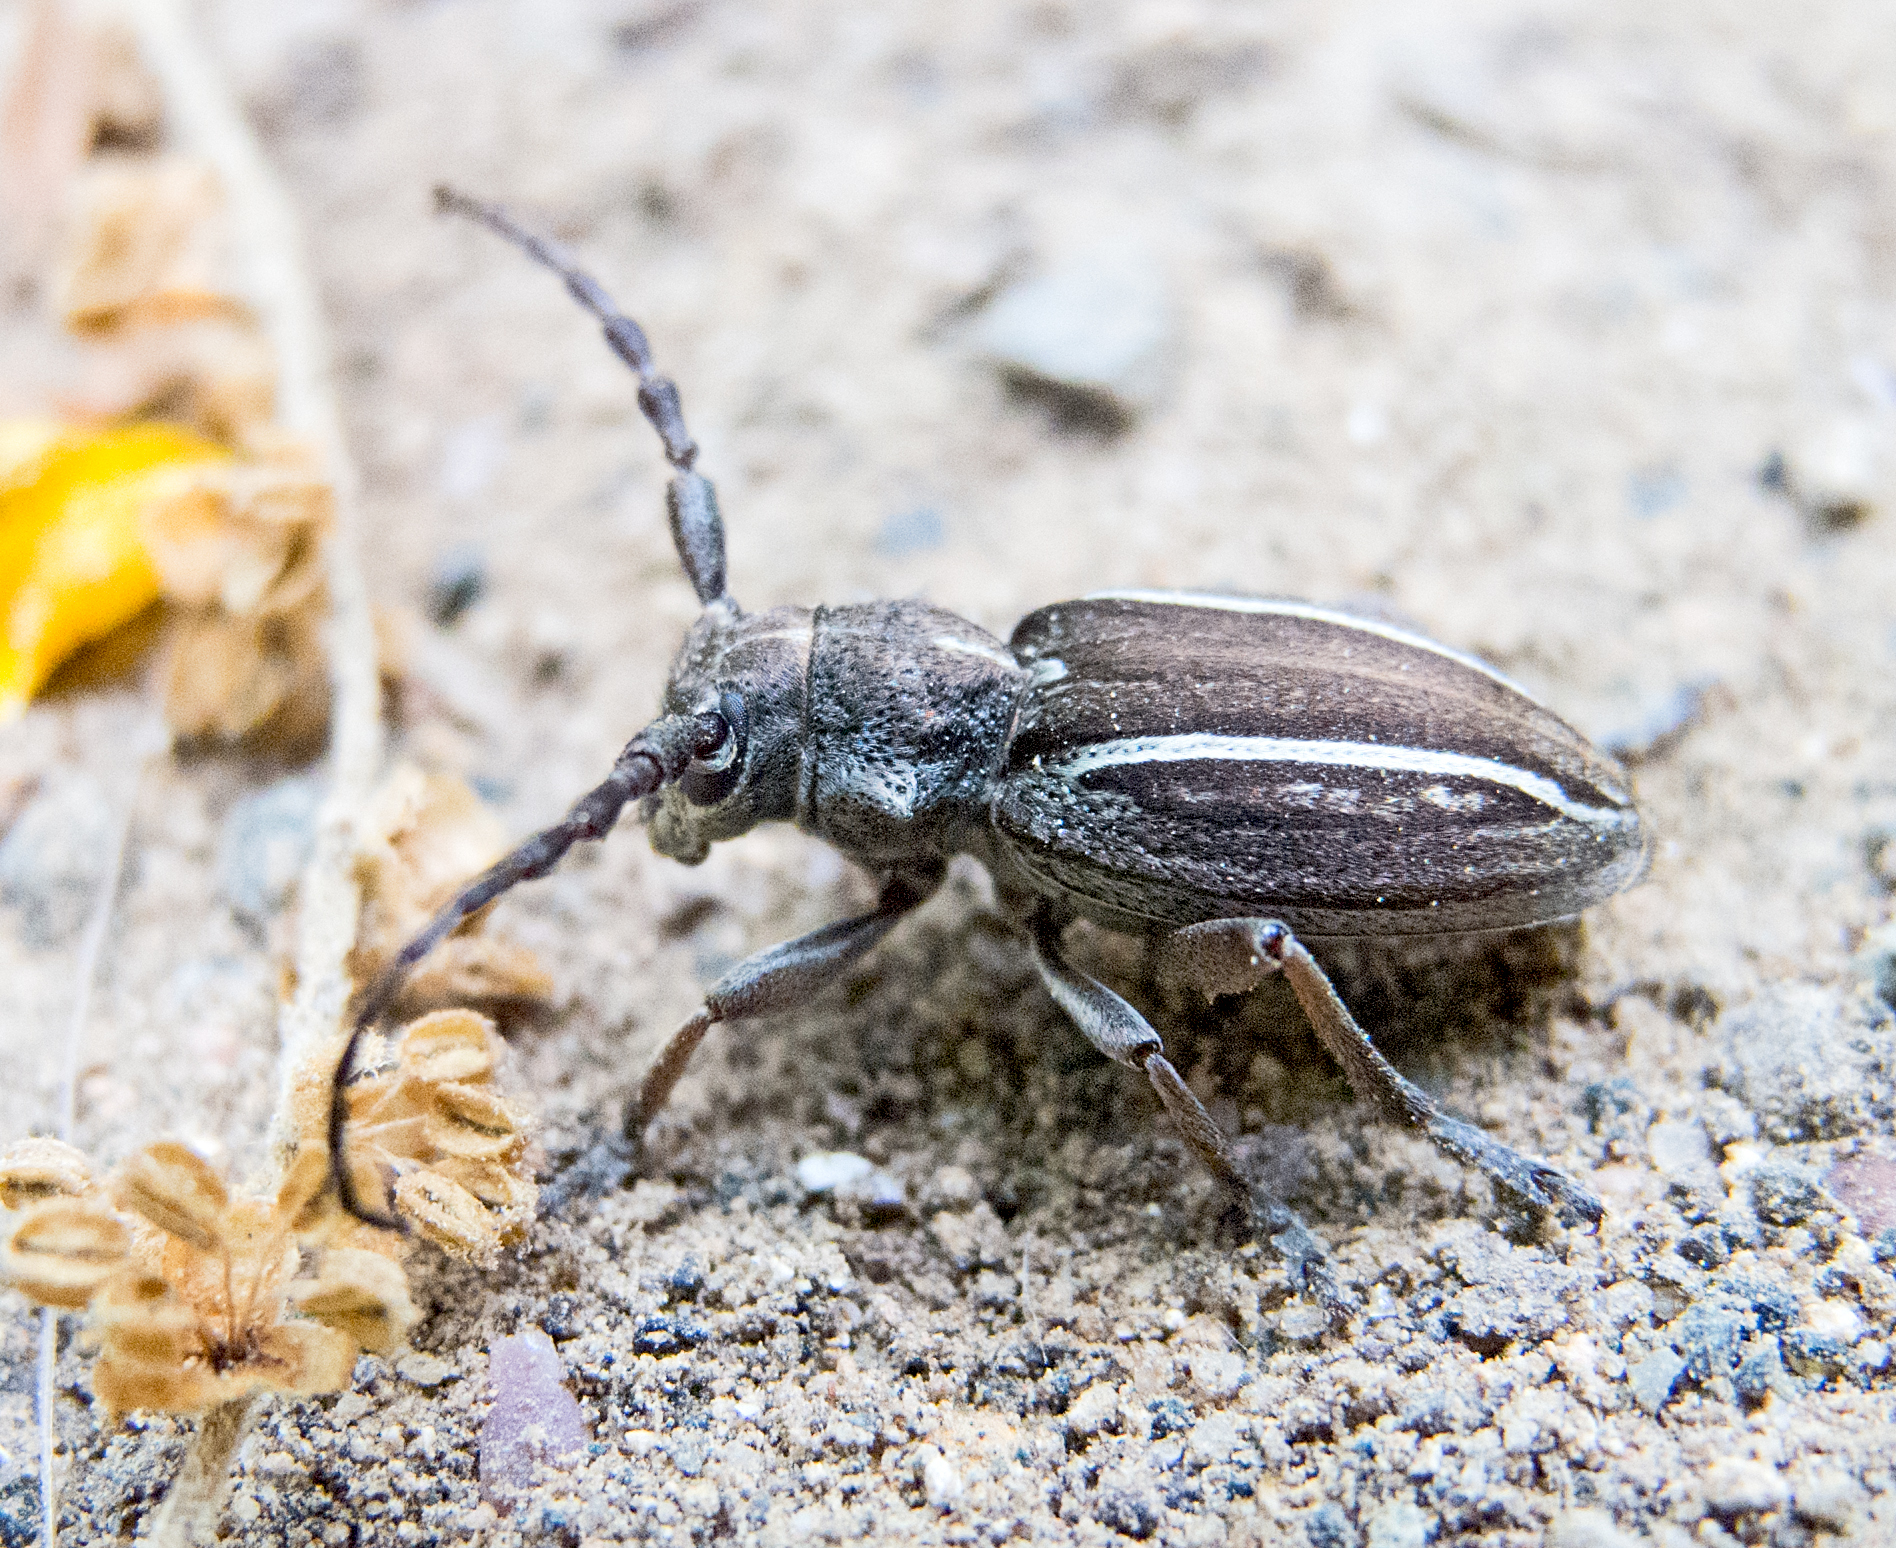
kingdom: Animalia
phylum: Arthropoda
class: Insecta
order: Coleoptera
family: Cerambycidae
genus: Neodorcadion
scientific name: Neodorcadion bilineatum
